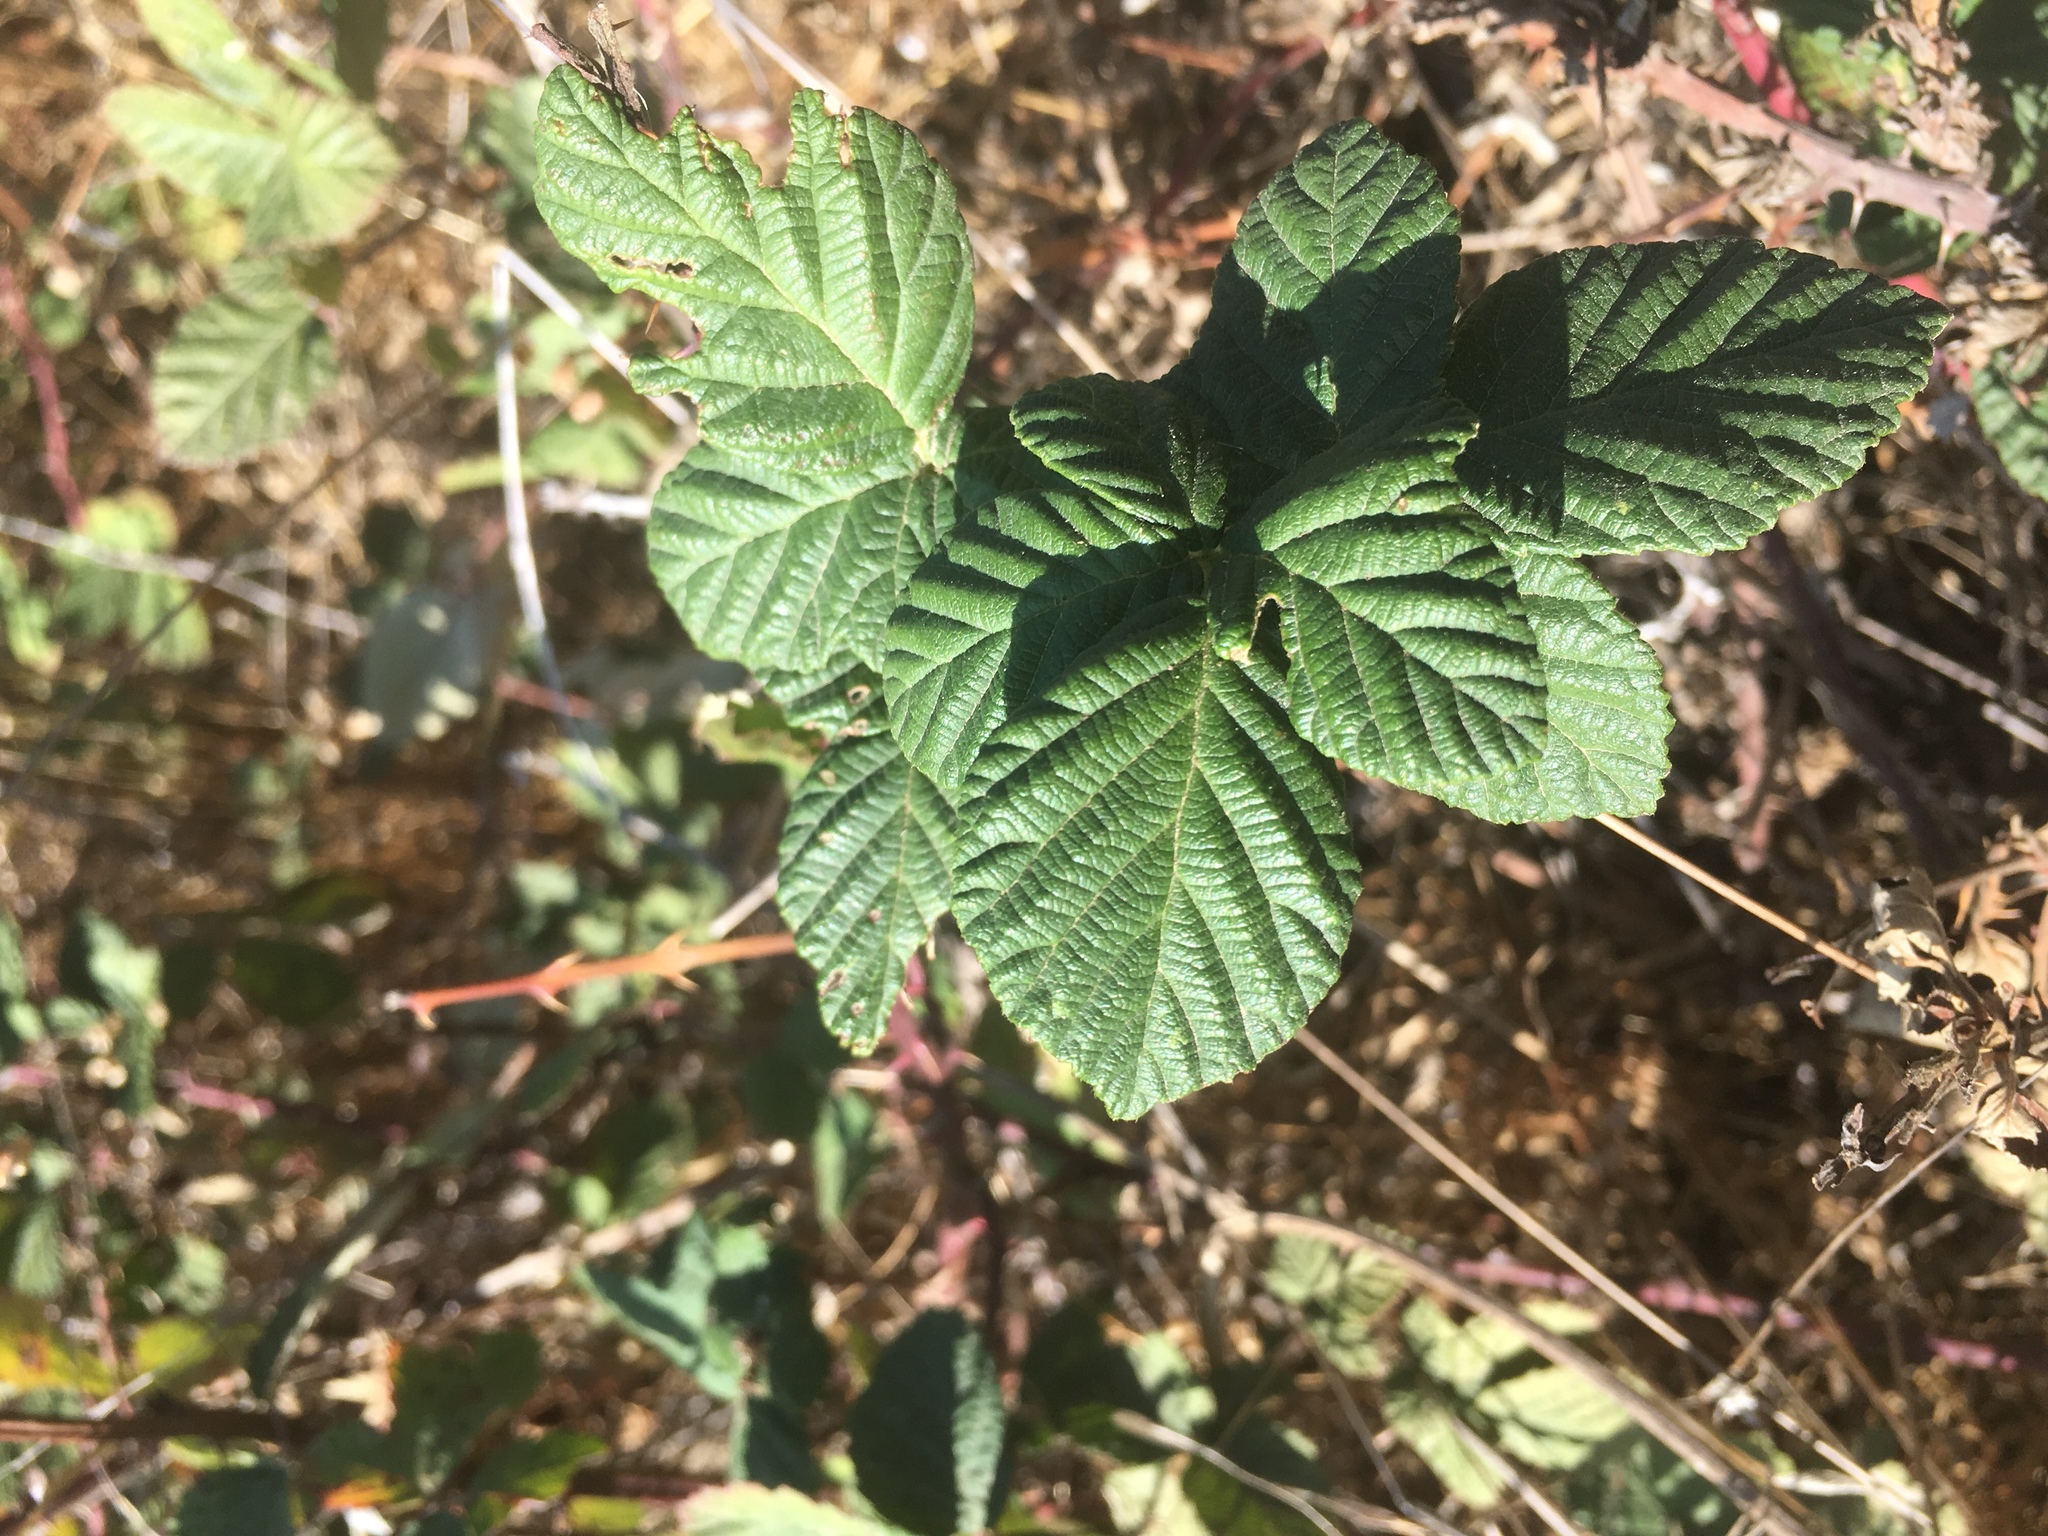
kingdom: Plantae
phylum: Tracheophyta
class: Magnoliopsida
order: Rosales
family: Rosaceae
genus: Rubus
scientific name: Rubus armeniacus
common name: Himalayan blackberry
